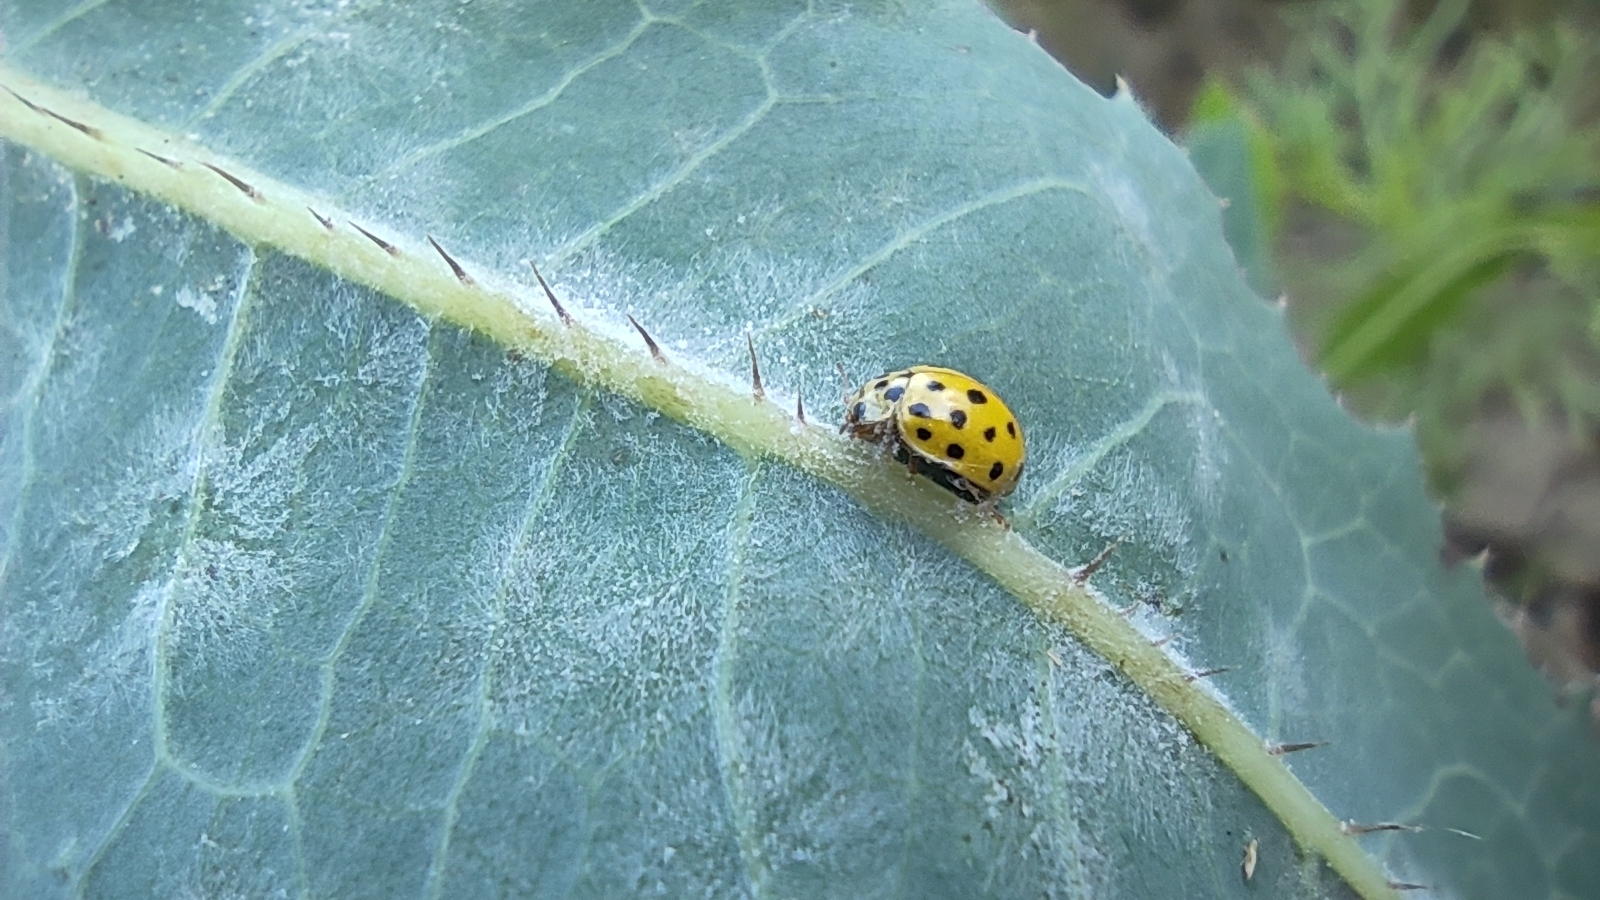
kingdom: Animalia
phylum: Arthropoda
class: Insecta
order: Coleoptera
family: Coccinellidae
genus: Psyllobora
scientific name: Psyllobora vigintiduopunctata
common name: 22-spot ladybird
